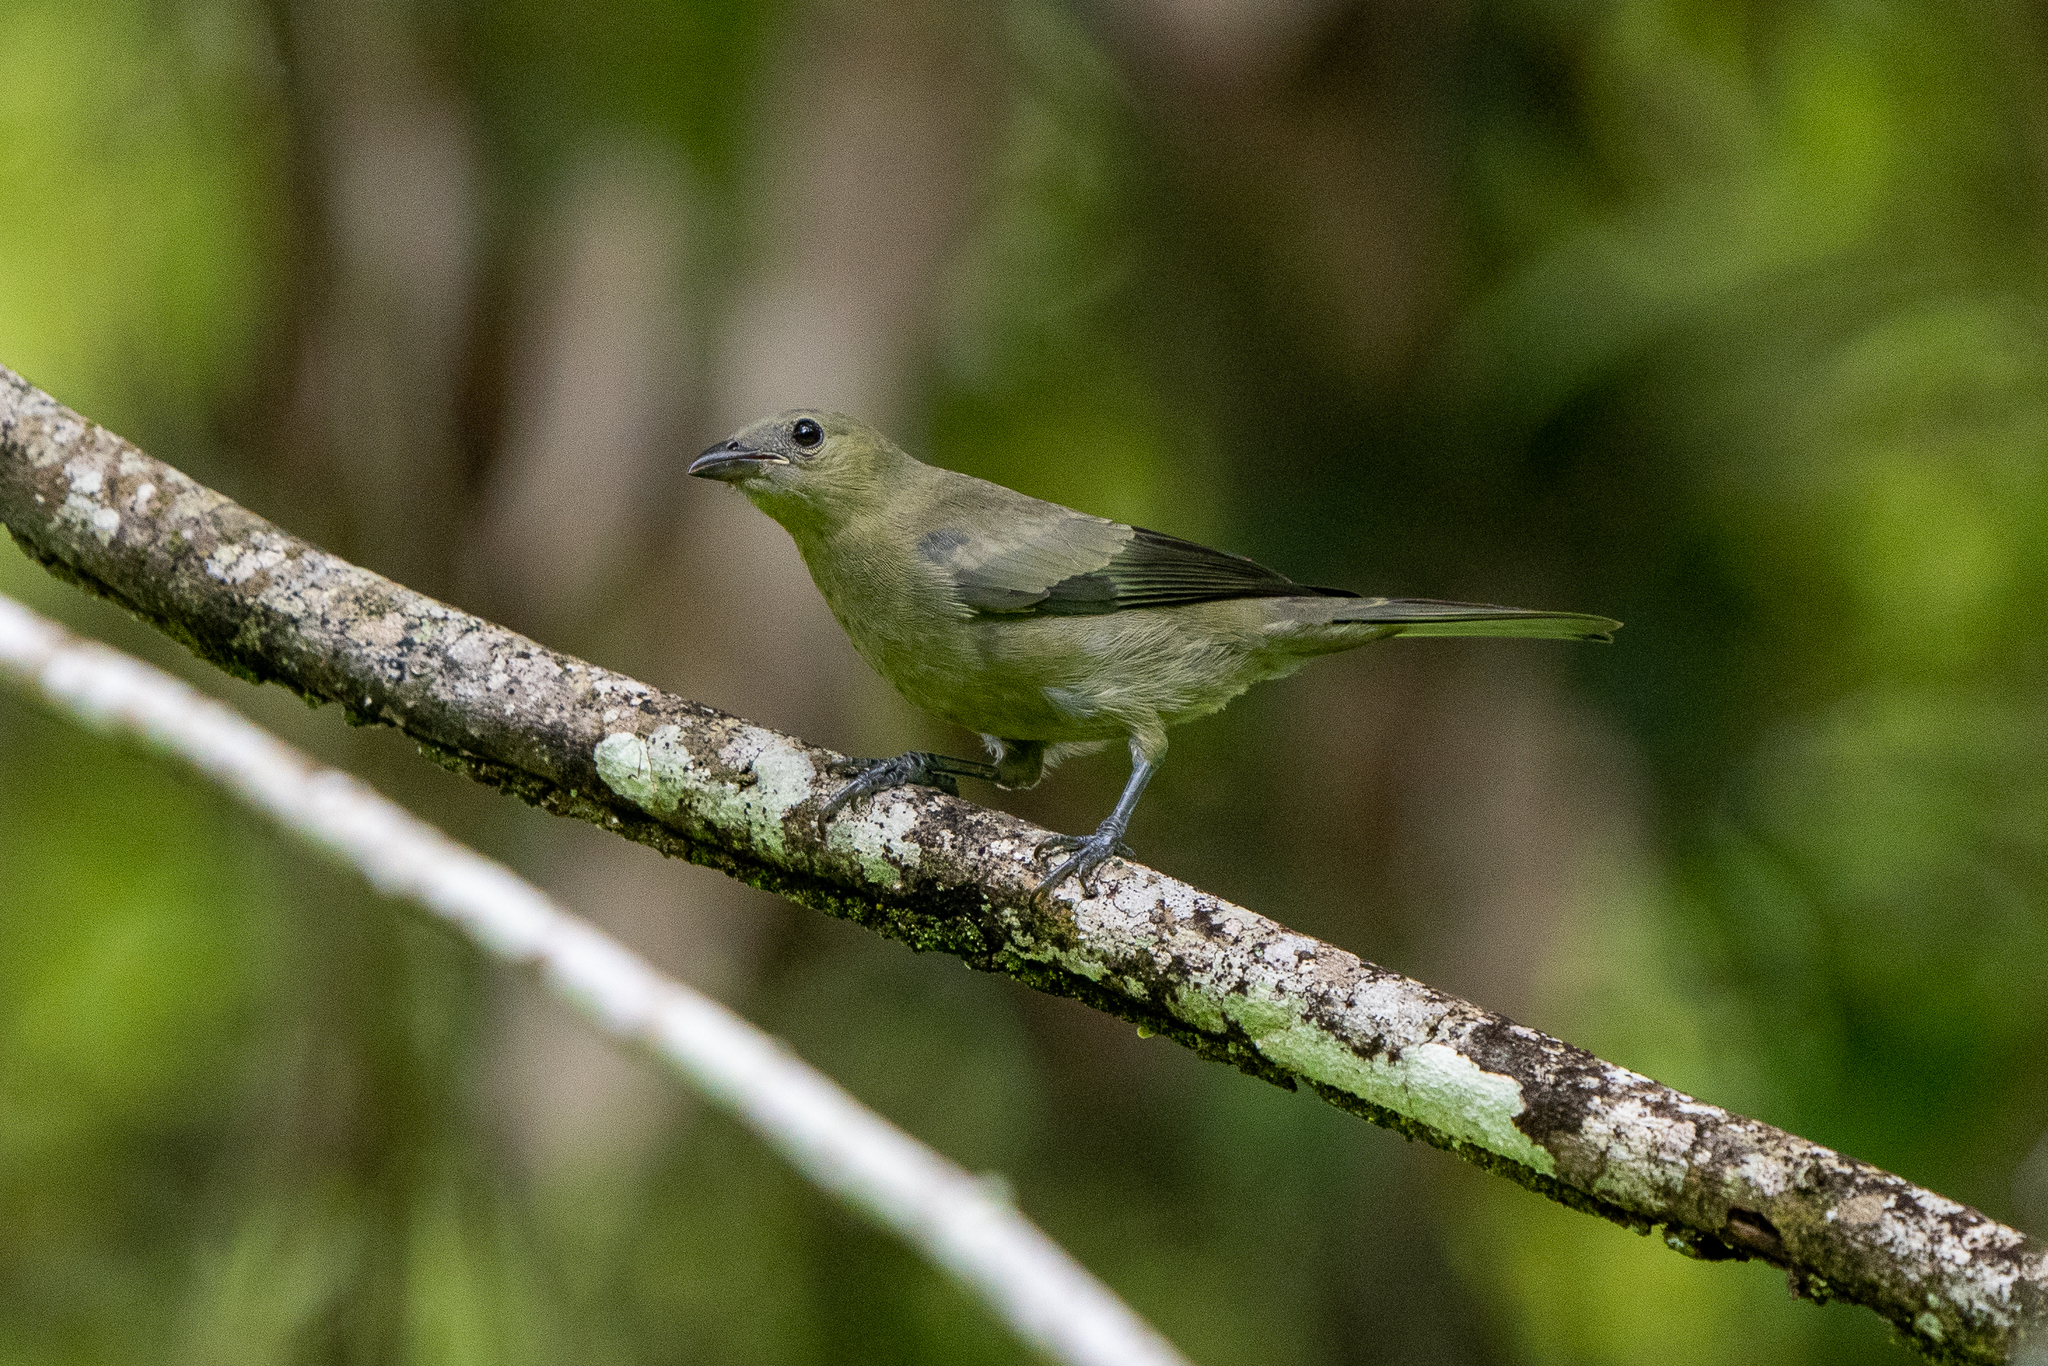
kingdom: Animalia
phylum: Chordata
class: Aves
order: Passeriformes
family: Thraupidae
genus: Thraupis
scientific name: Thraupis palmarum
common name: Palm tanager
